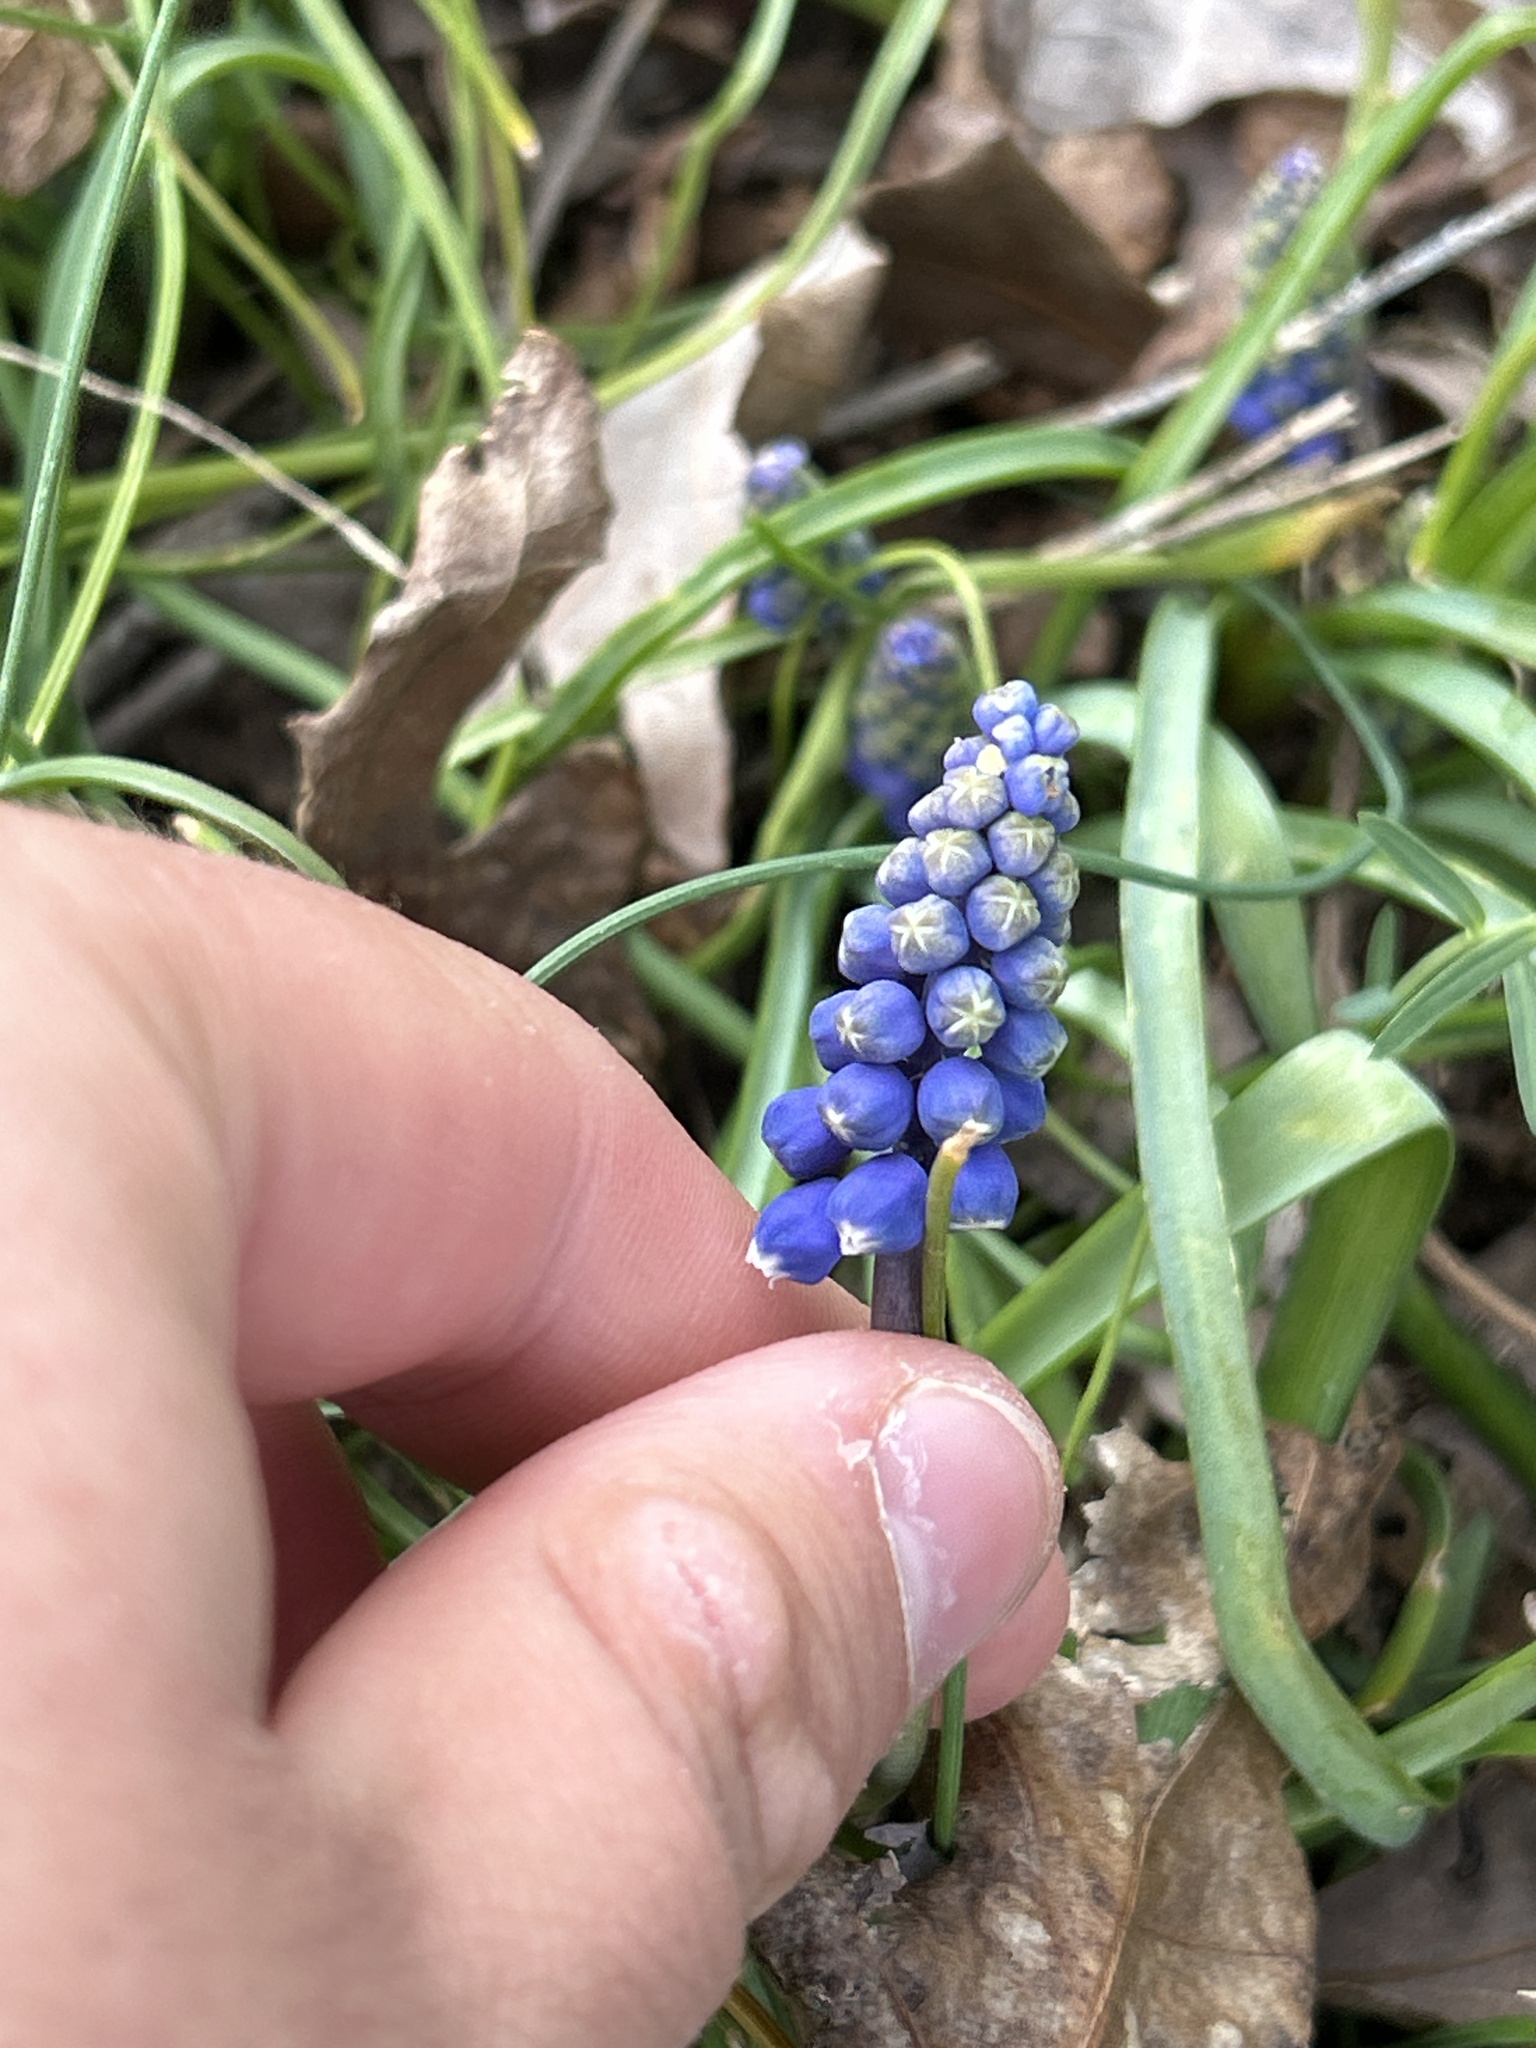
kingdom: Plantae
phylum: Tracheophyta
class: Liliopsida
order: Asparagales
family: Asparagaceae
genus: Muscari
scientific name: Muscari botryoides
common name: Compact grape-hyacinth
